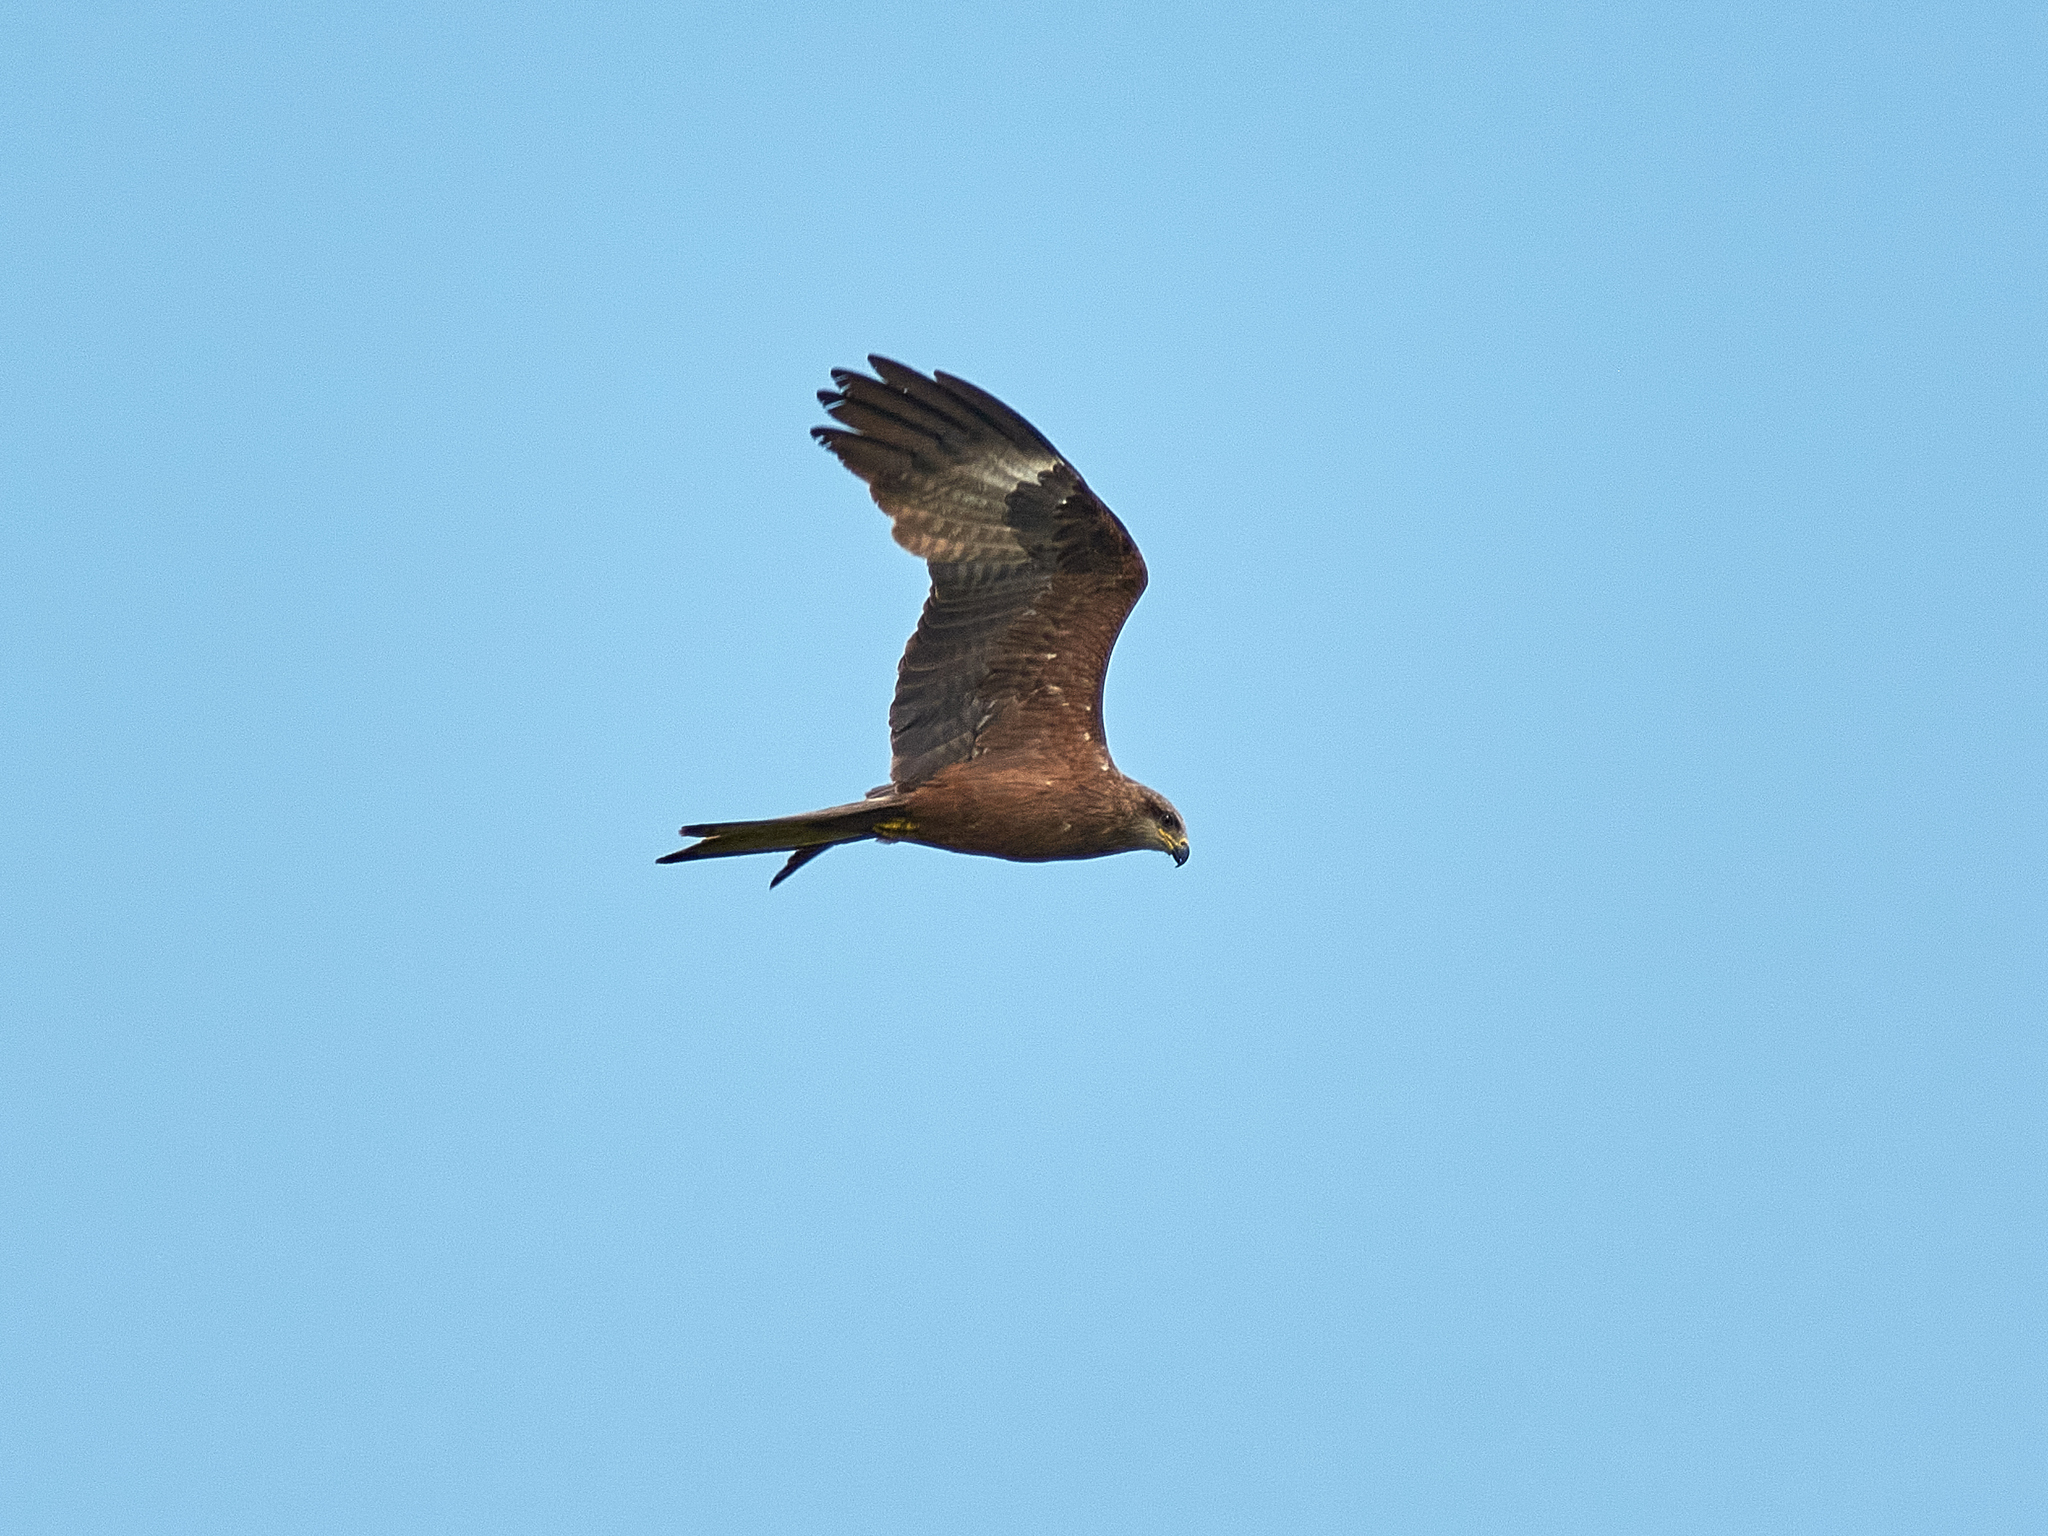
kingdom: Animalia
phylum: Chordata
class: Aves
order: Accipitriformes
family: Accipitridae
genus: Milvus
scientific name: Milvus migrans
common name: Black kite
